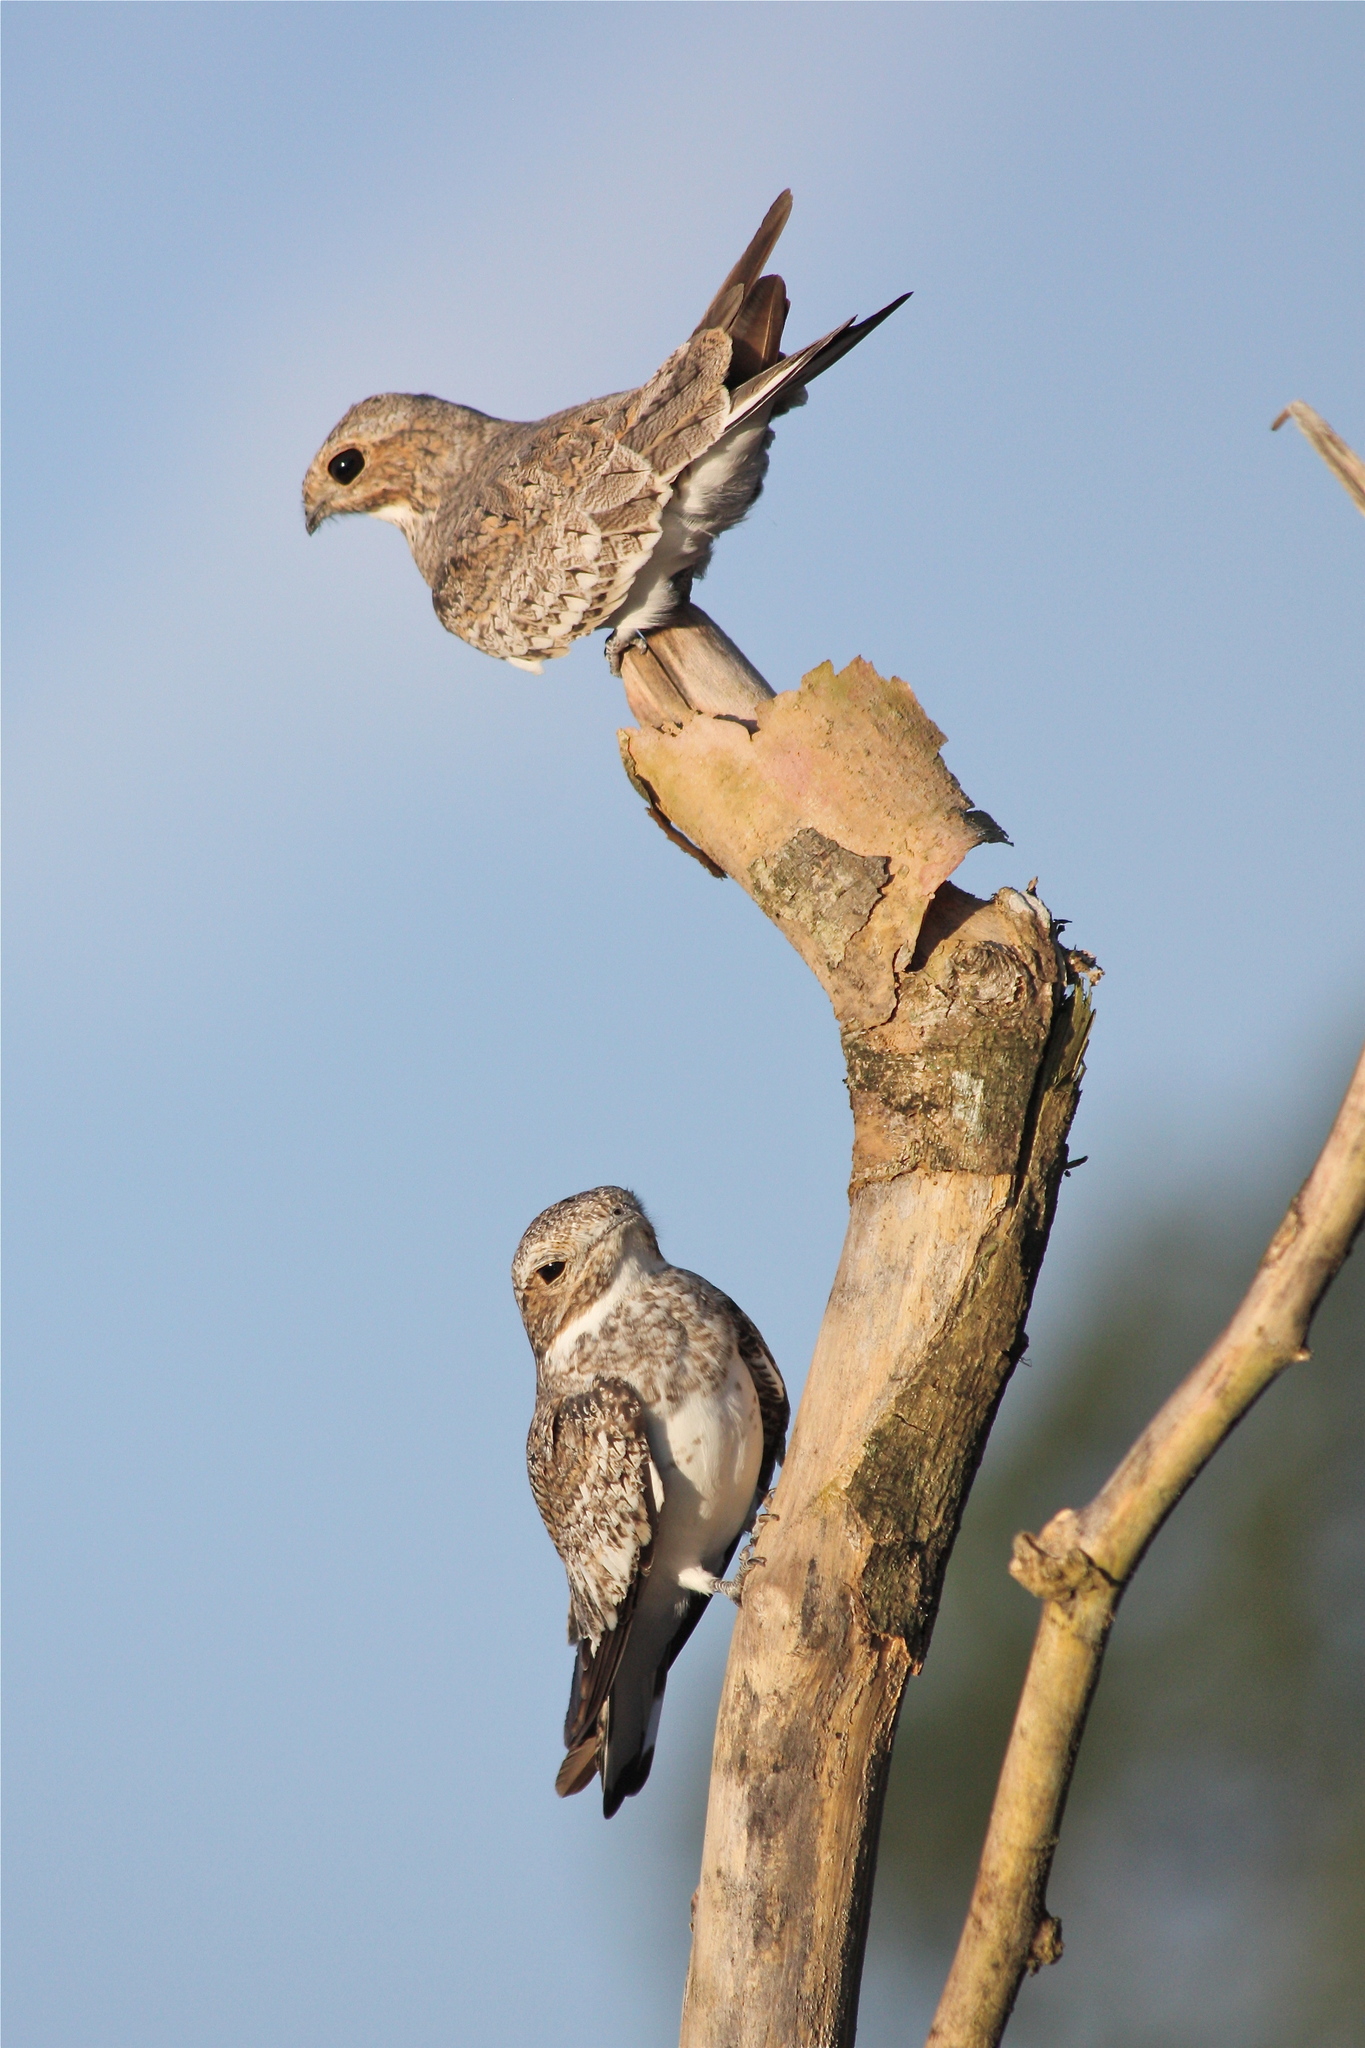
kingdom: Animalia
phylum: Chordata
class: Aves
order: Caprimulgiformes
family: Caprimulgidae
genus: Chordeiles
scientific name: Chordeiles rupestris
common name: Sand-colored nighthawk
